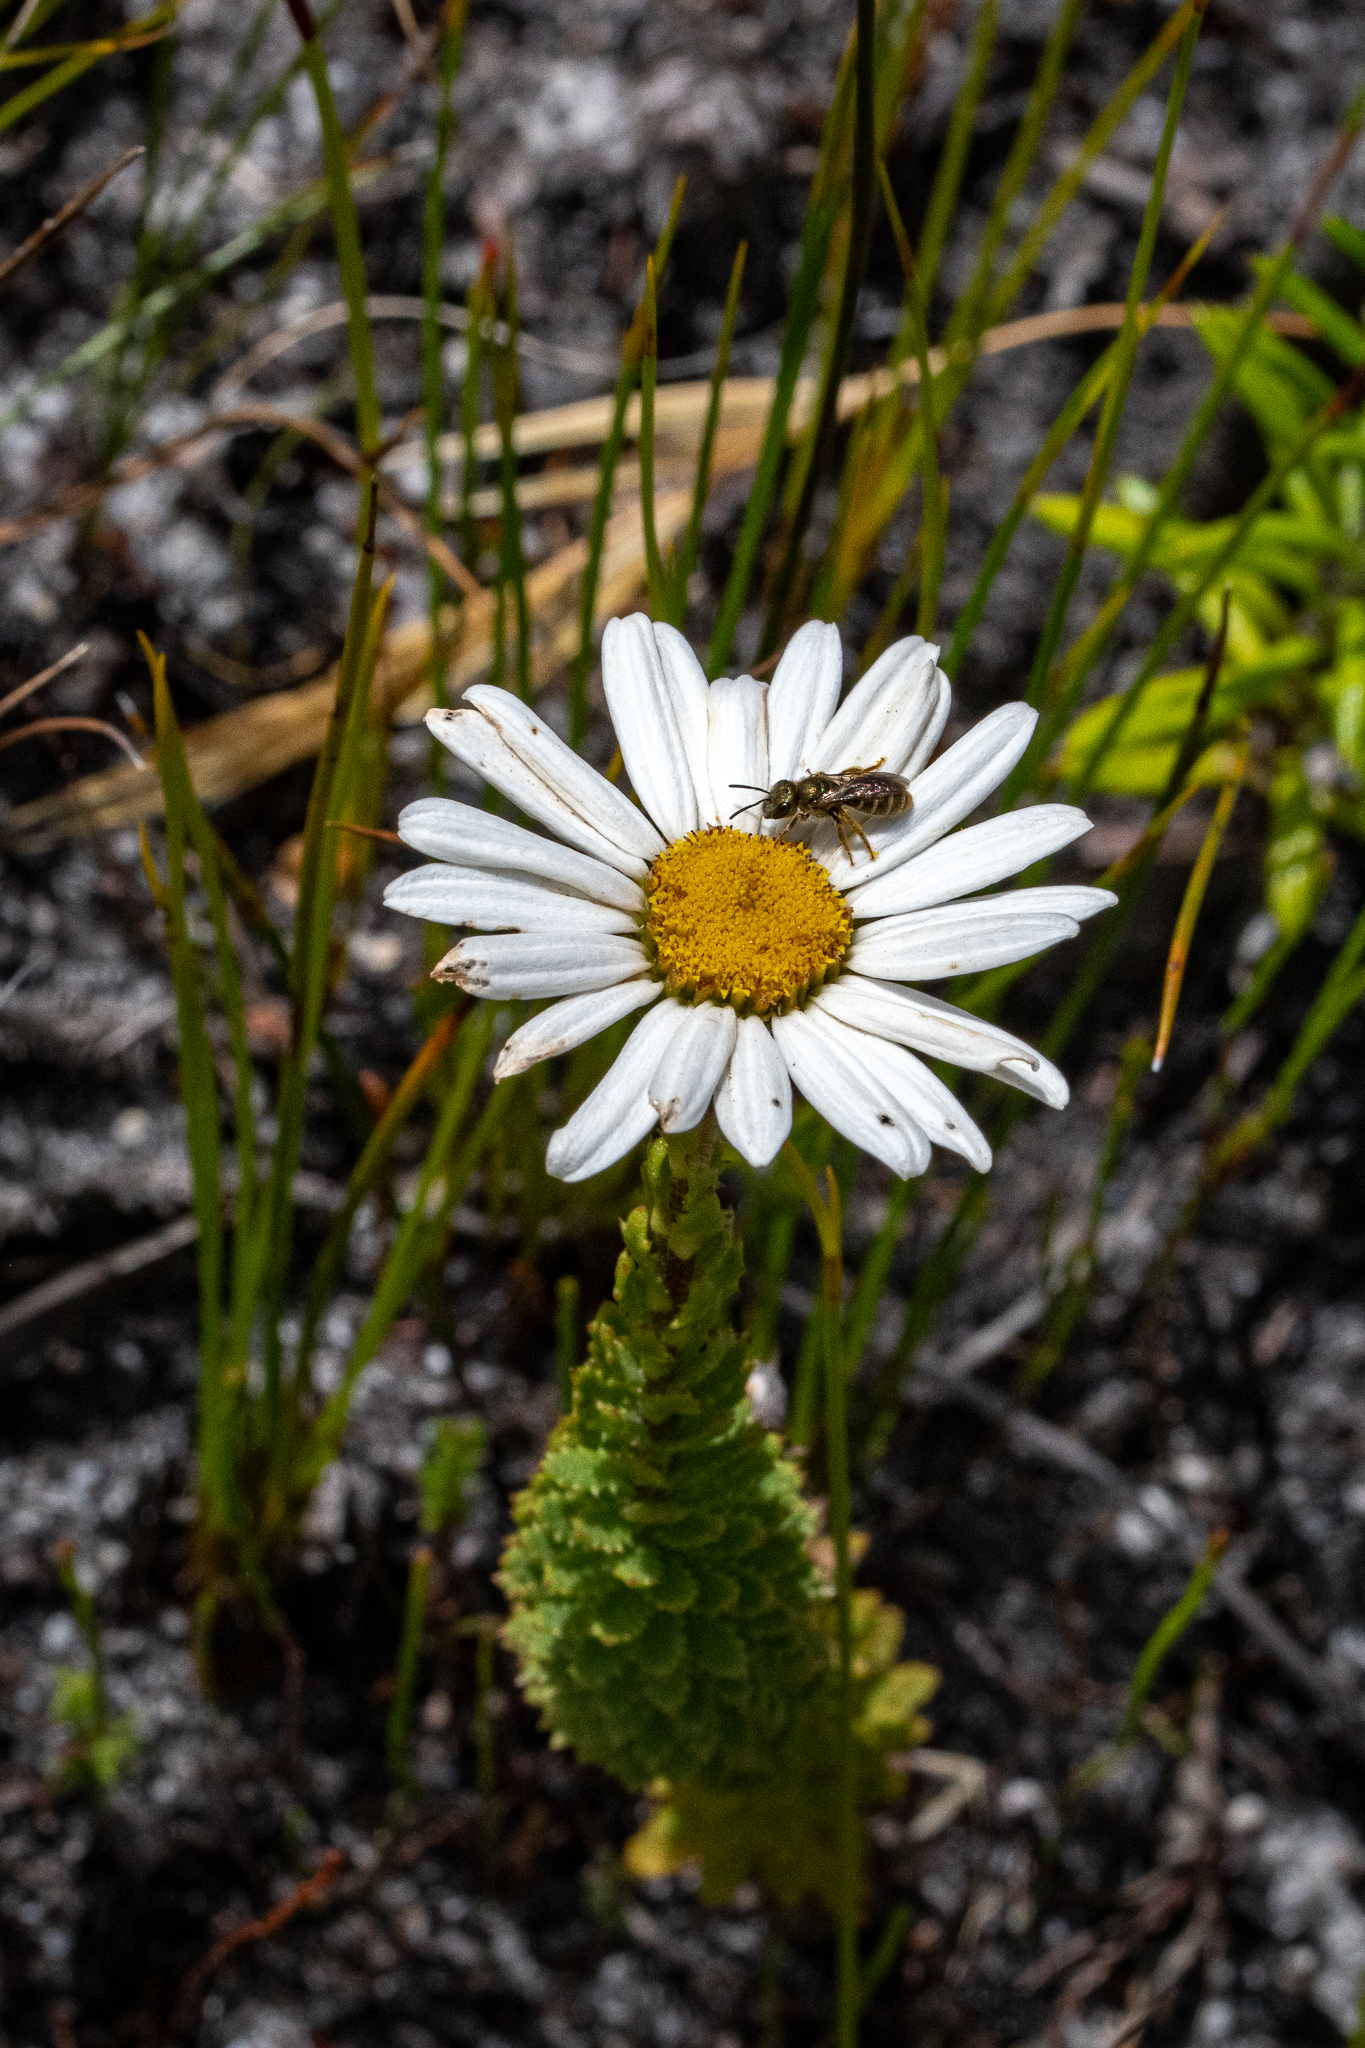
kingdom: Plantae
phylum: Tracheophyta
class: Magnoliopsida
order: Asterales
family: Asteraceae
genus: Osmitopsis
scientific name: Osmitopsis afra
